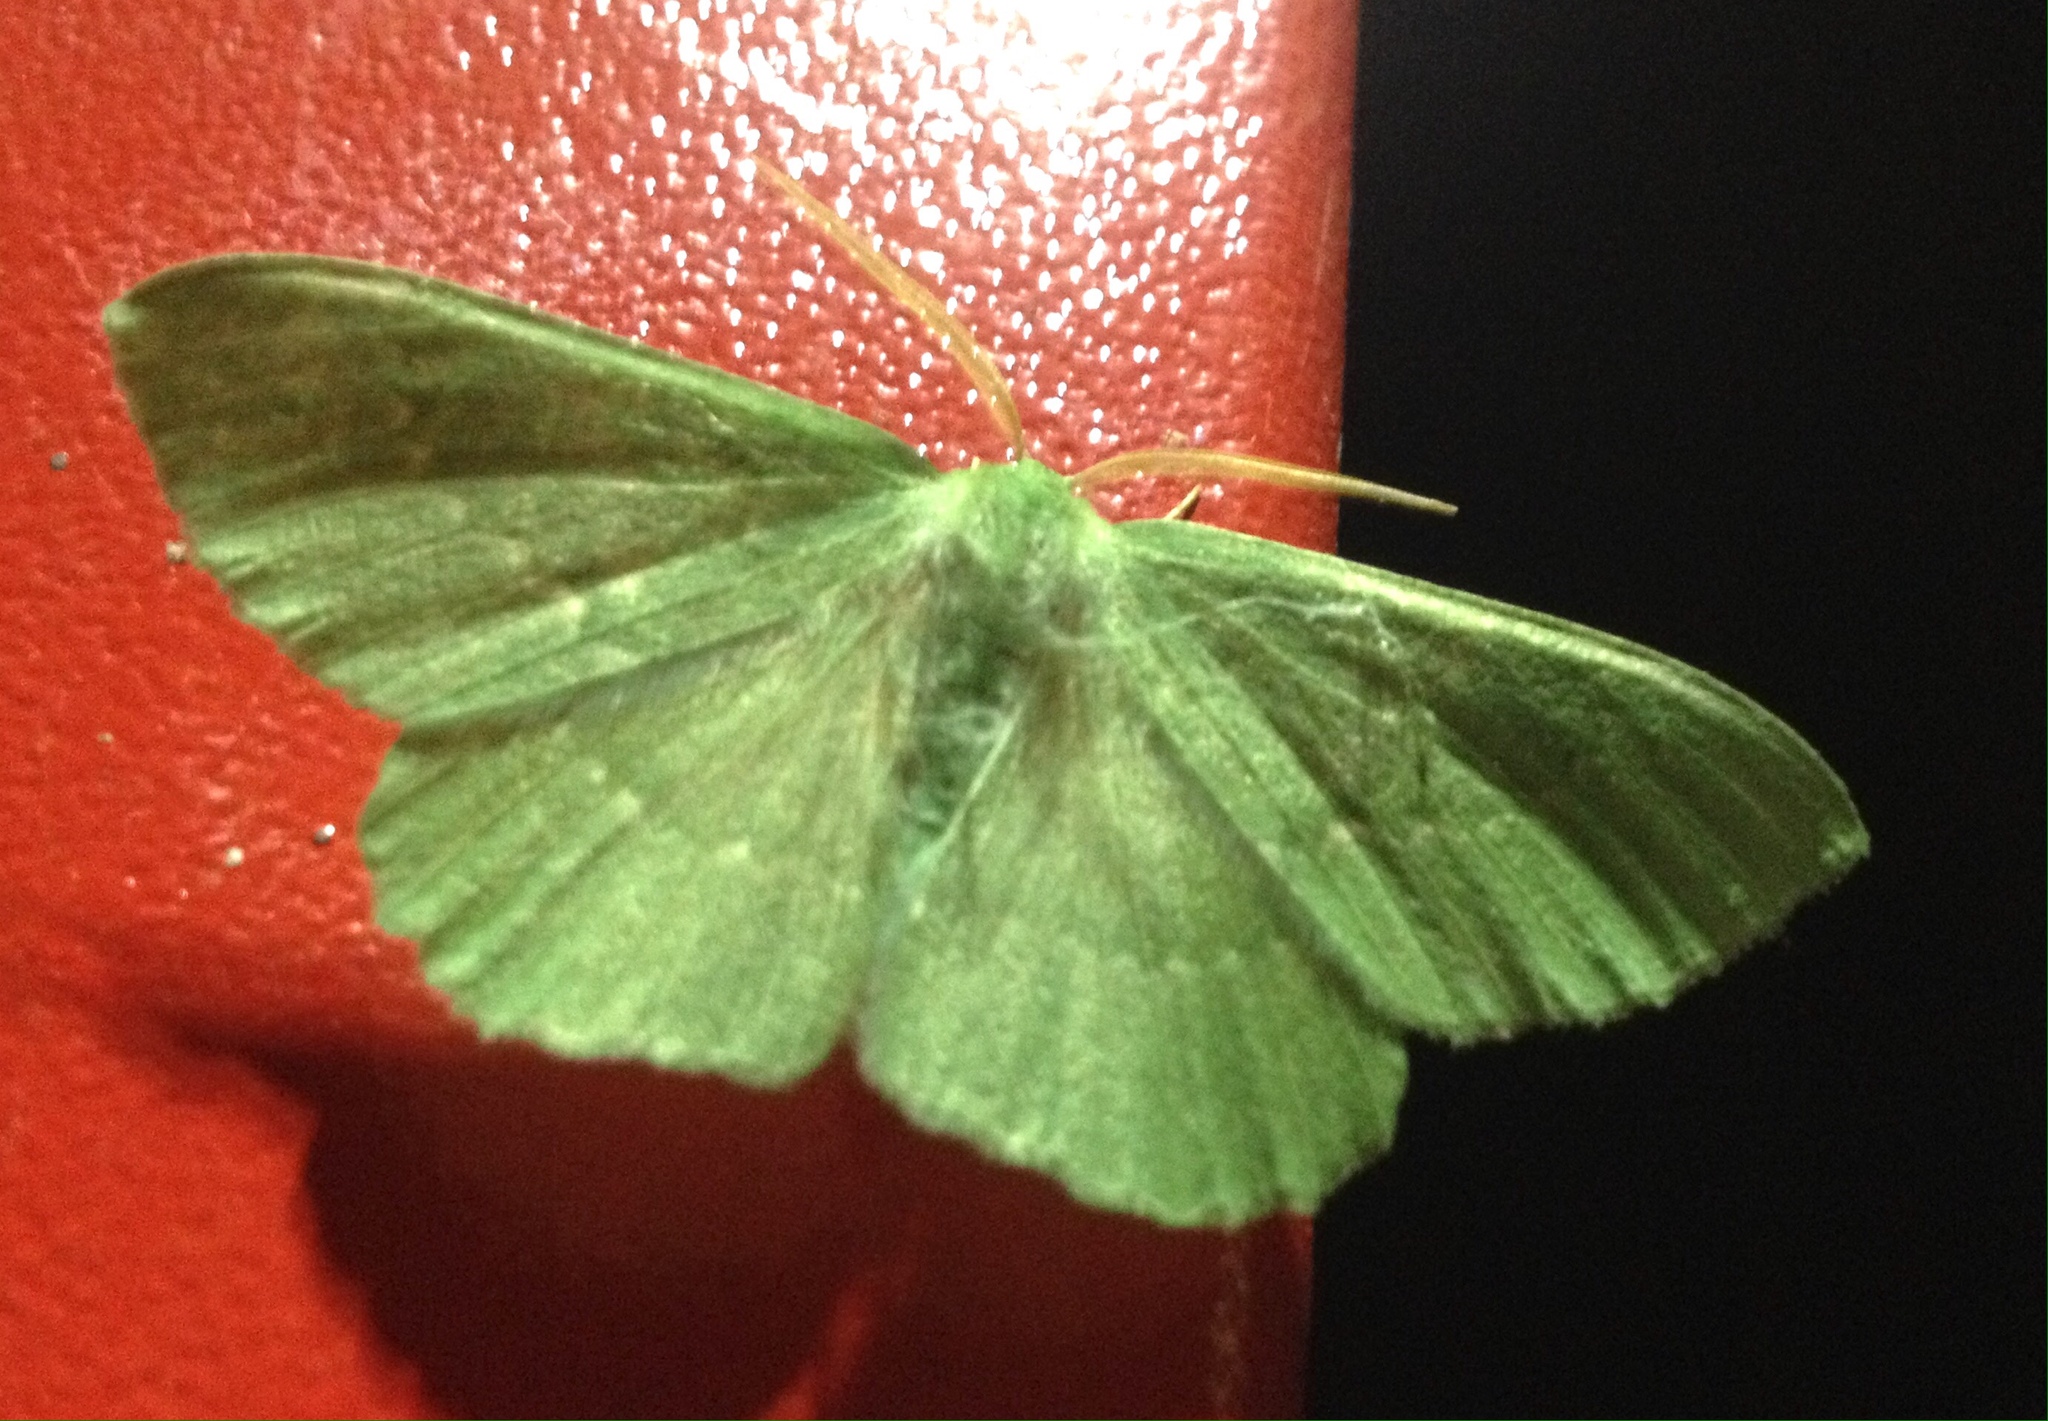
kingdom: Animalia
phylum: Arthropoda
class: Insecta
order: Lepidoptera
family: Geometridae
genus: Geometra
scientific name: Geometra papilionaria
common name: Large emerald
